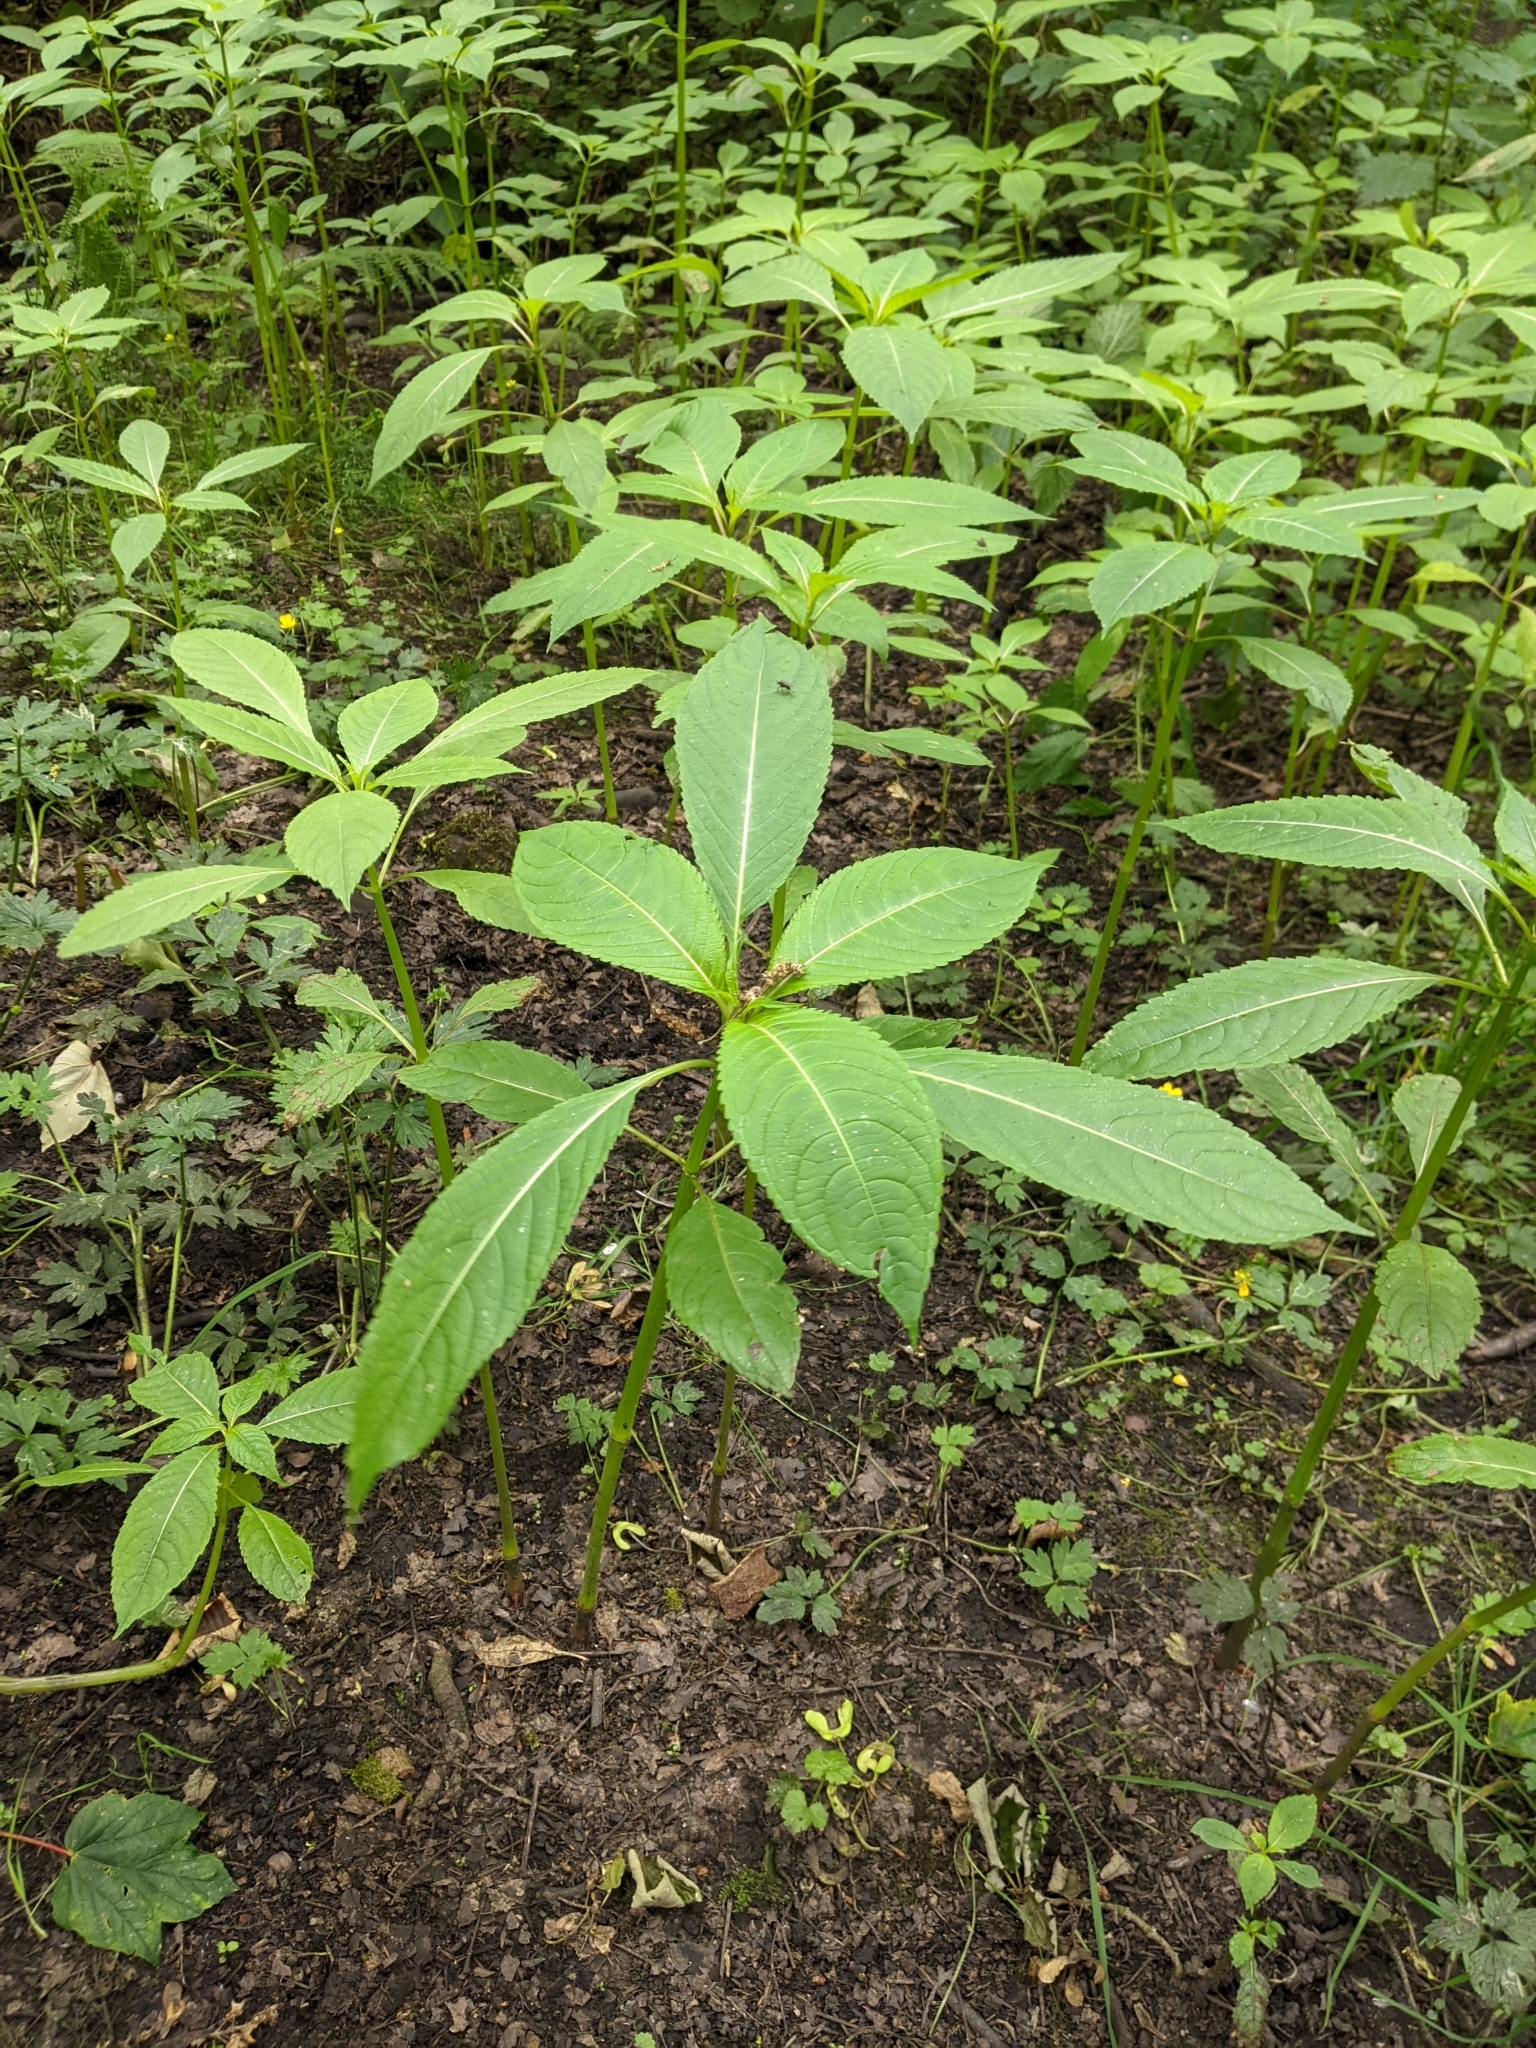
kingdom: Plantae
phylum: Tracheophyta
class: Magnoliopsida
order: Ericales
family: Balsaminaceae
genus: Impatiens
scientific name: Impatiens glandulifera
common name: Himalayan balsam
